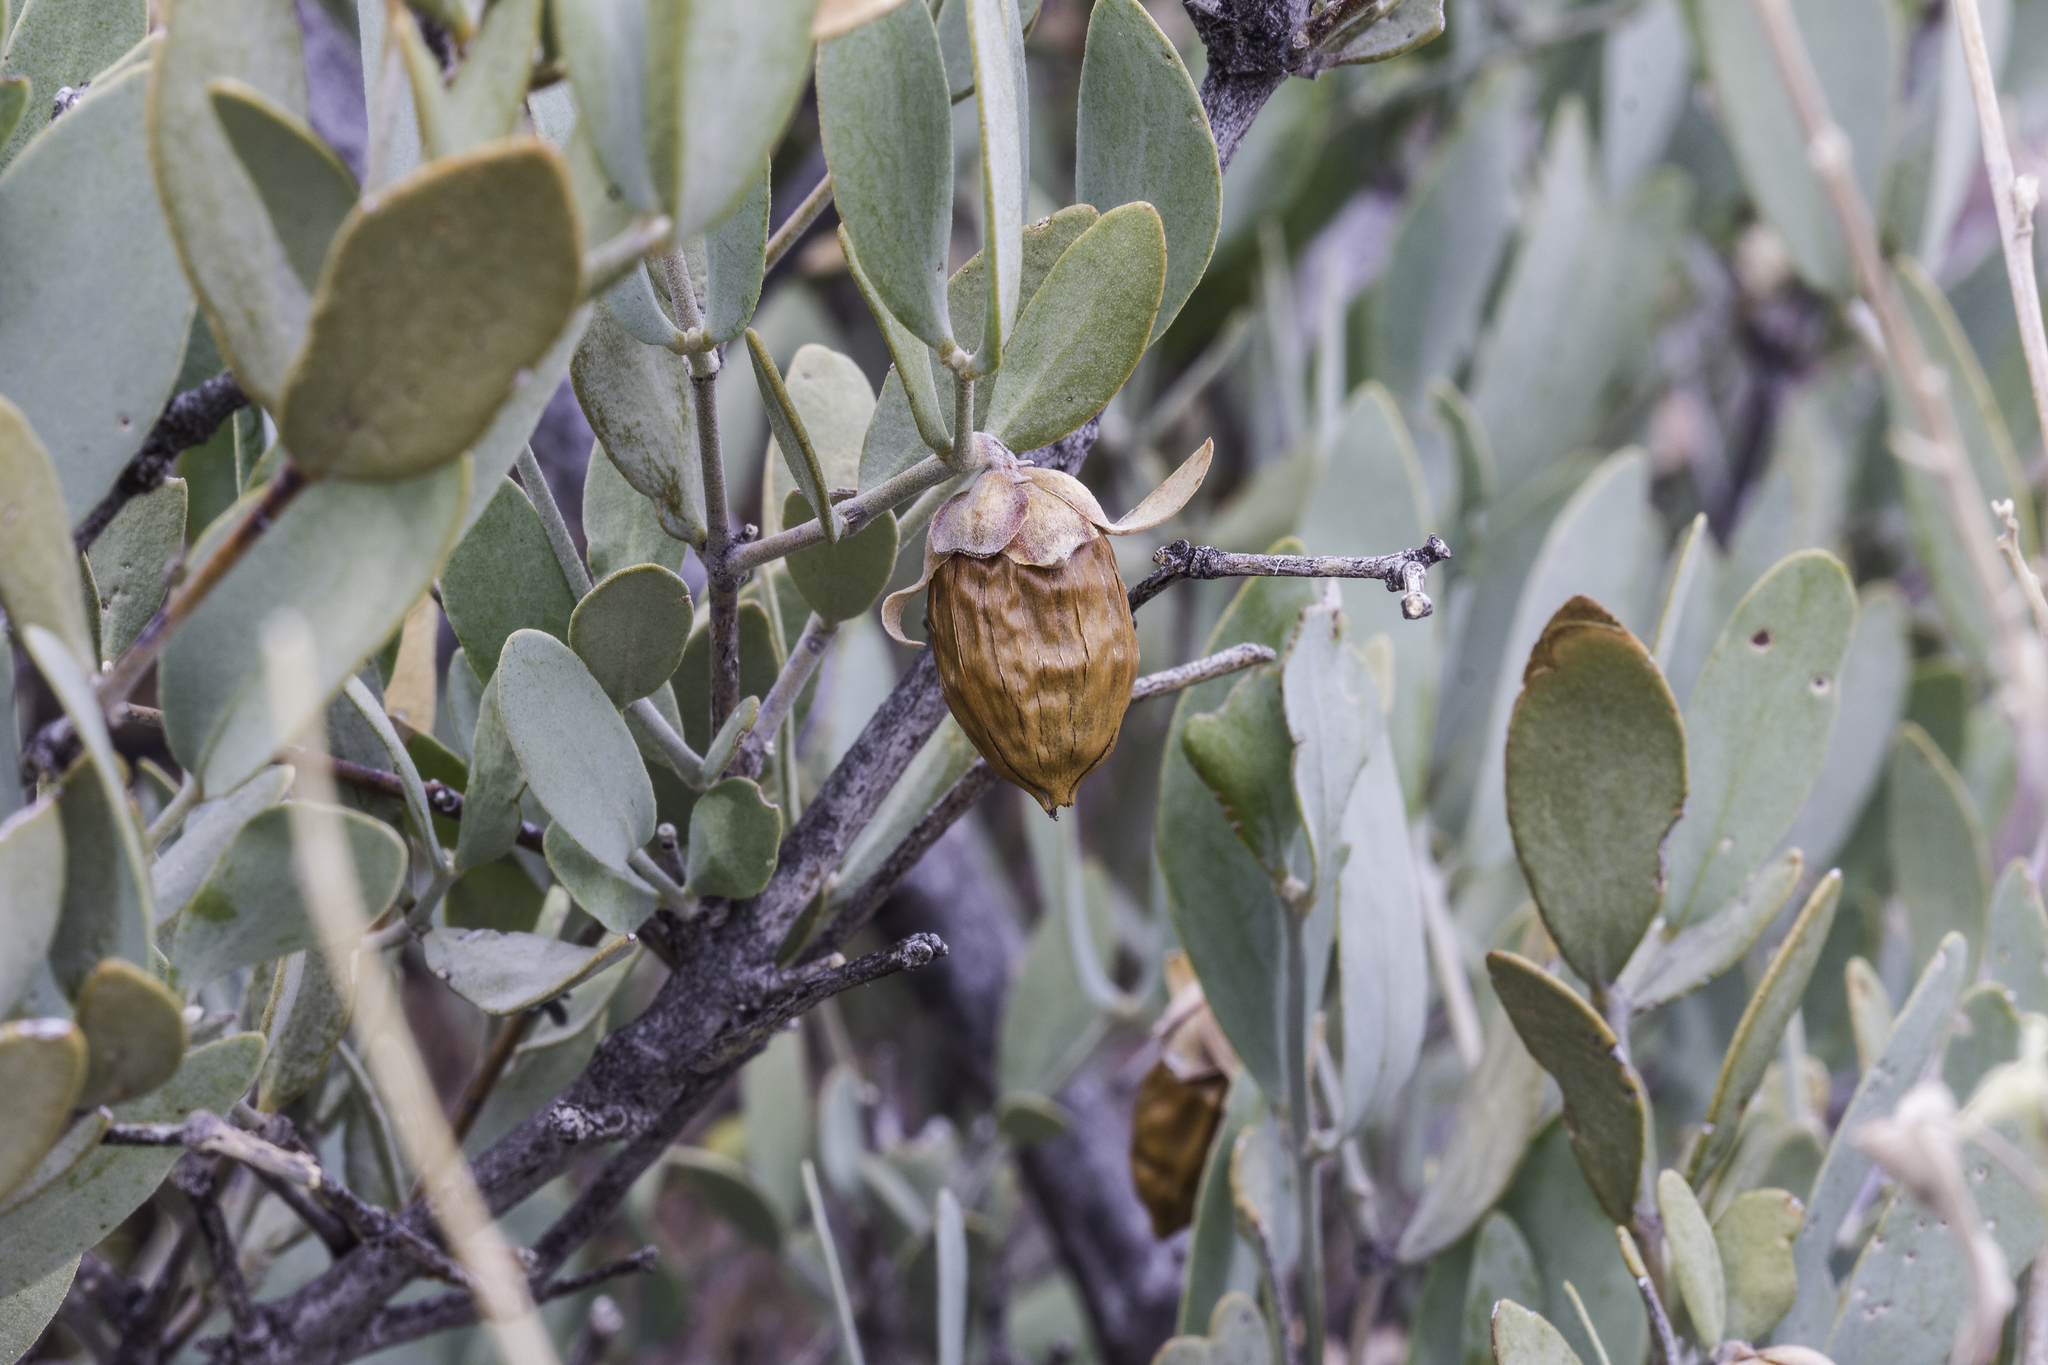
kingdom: Plantae
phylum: Tracheophyta
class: Magnoliopsida
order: Caryophyllales
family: Simmondsiaceae
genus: Simmondsia
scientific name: Simmondsia chinensis
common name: Jojoba
